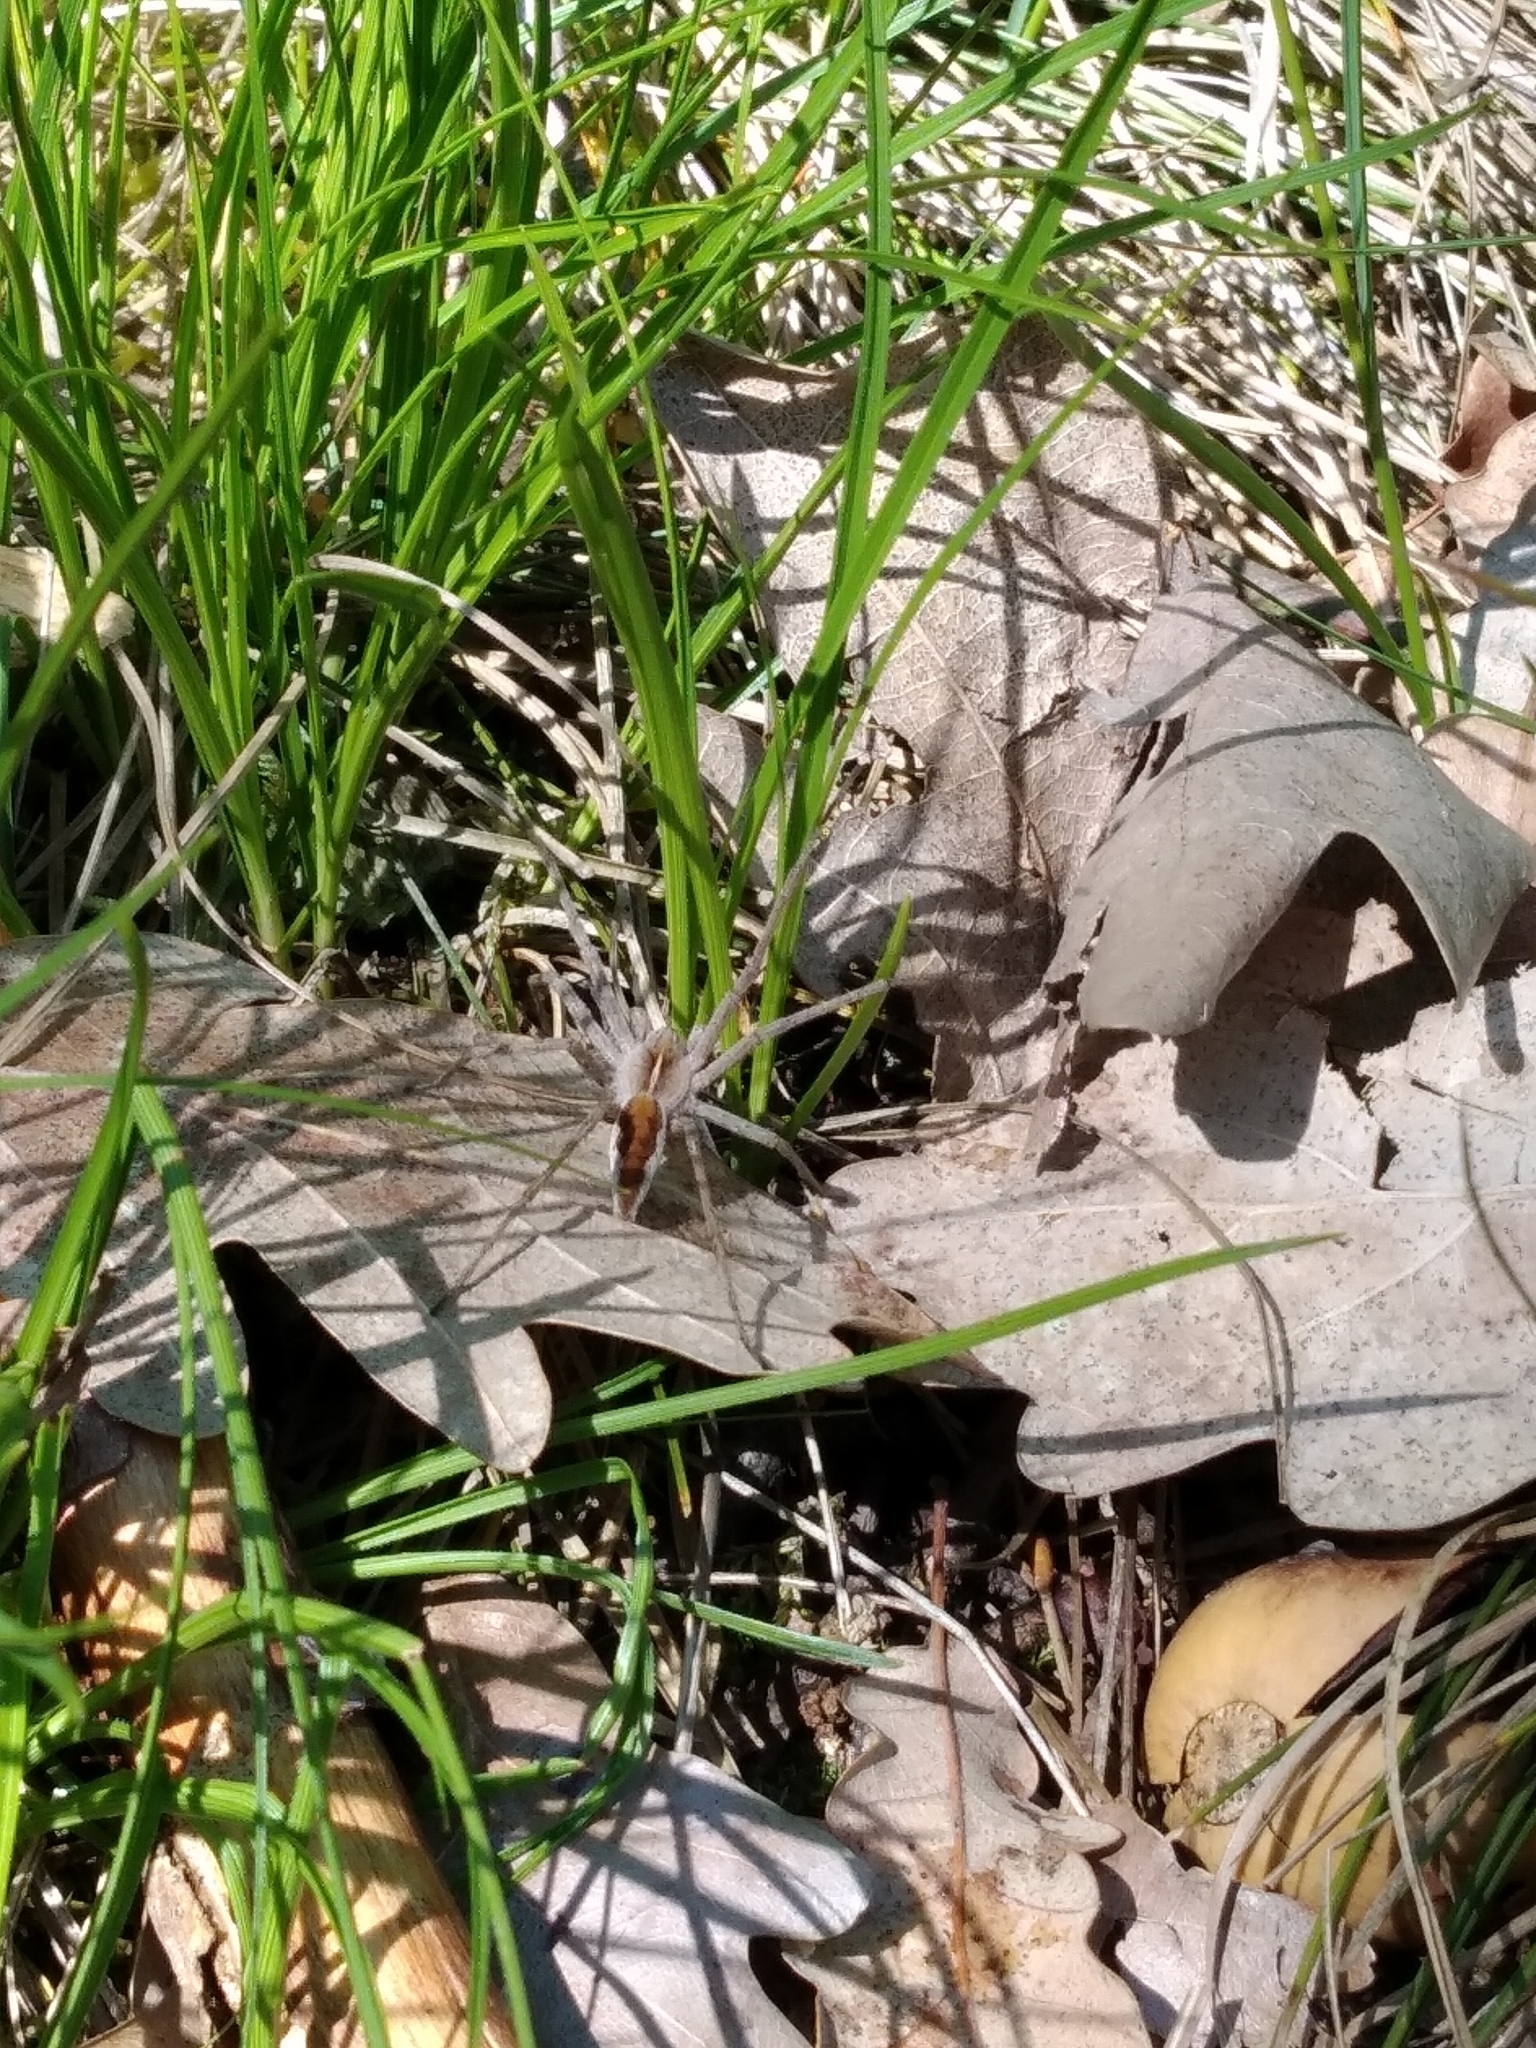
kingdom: Animalia
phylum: Arthropoda
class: Arachnida
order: Araneae
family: Pisauridae
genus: Pisaura
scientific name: Pisaura mirabilis
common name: Tent spider
